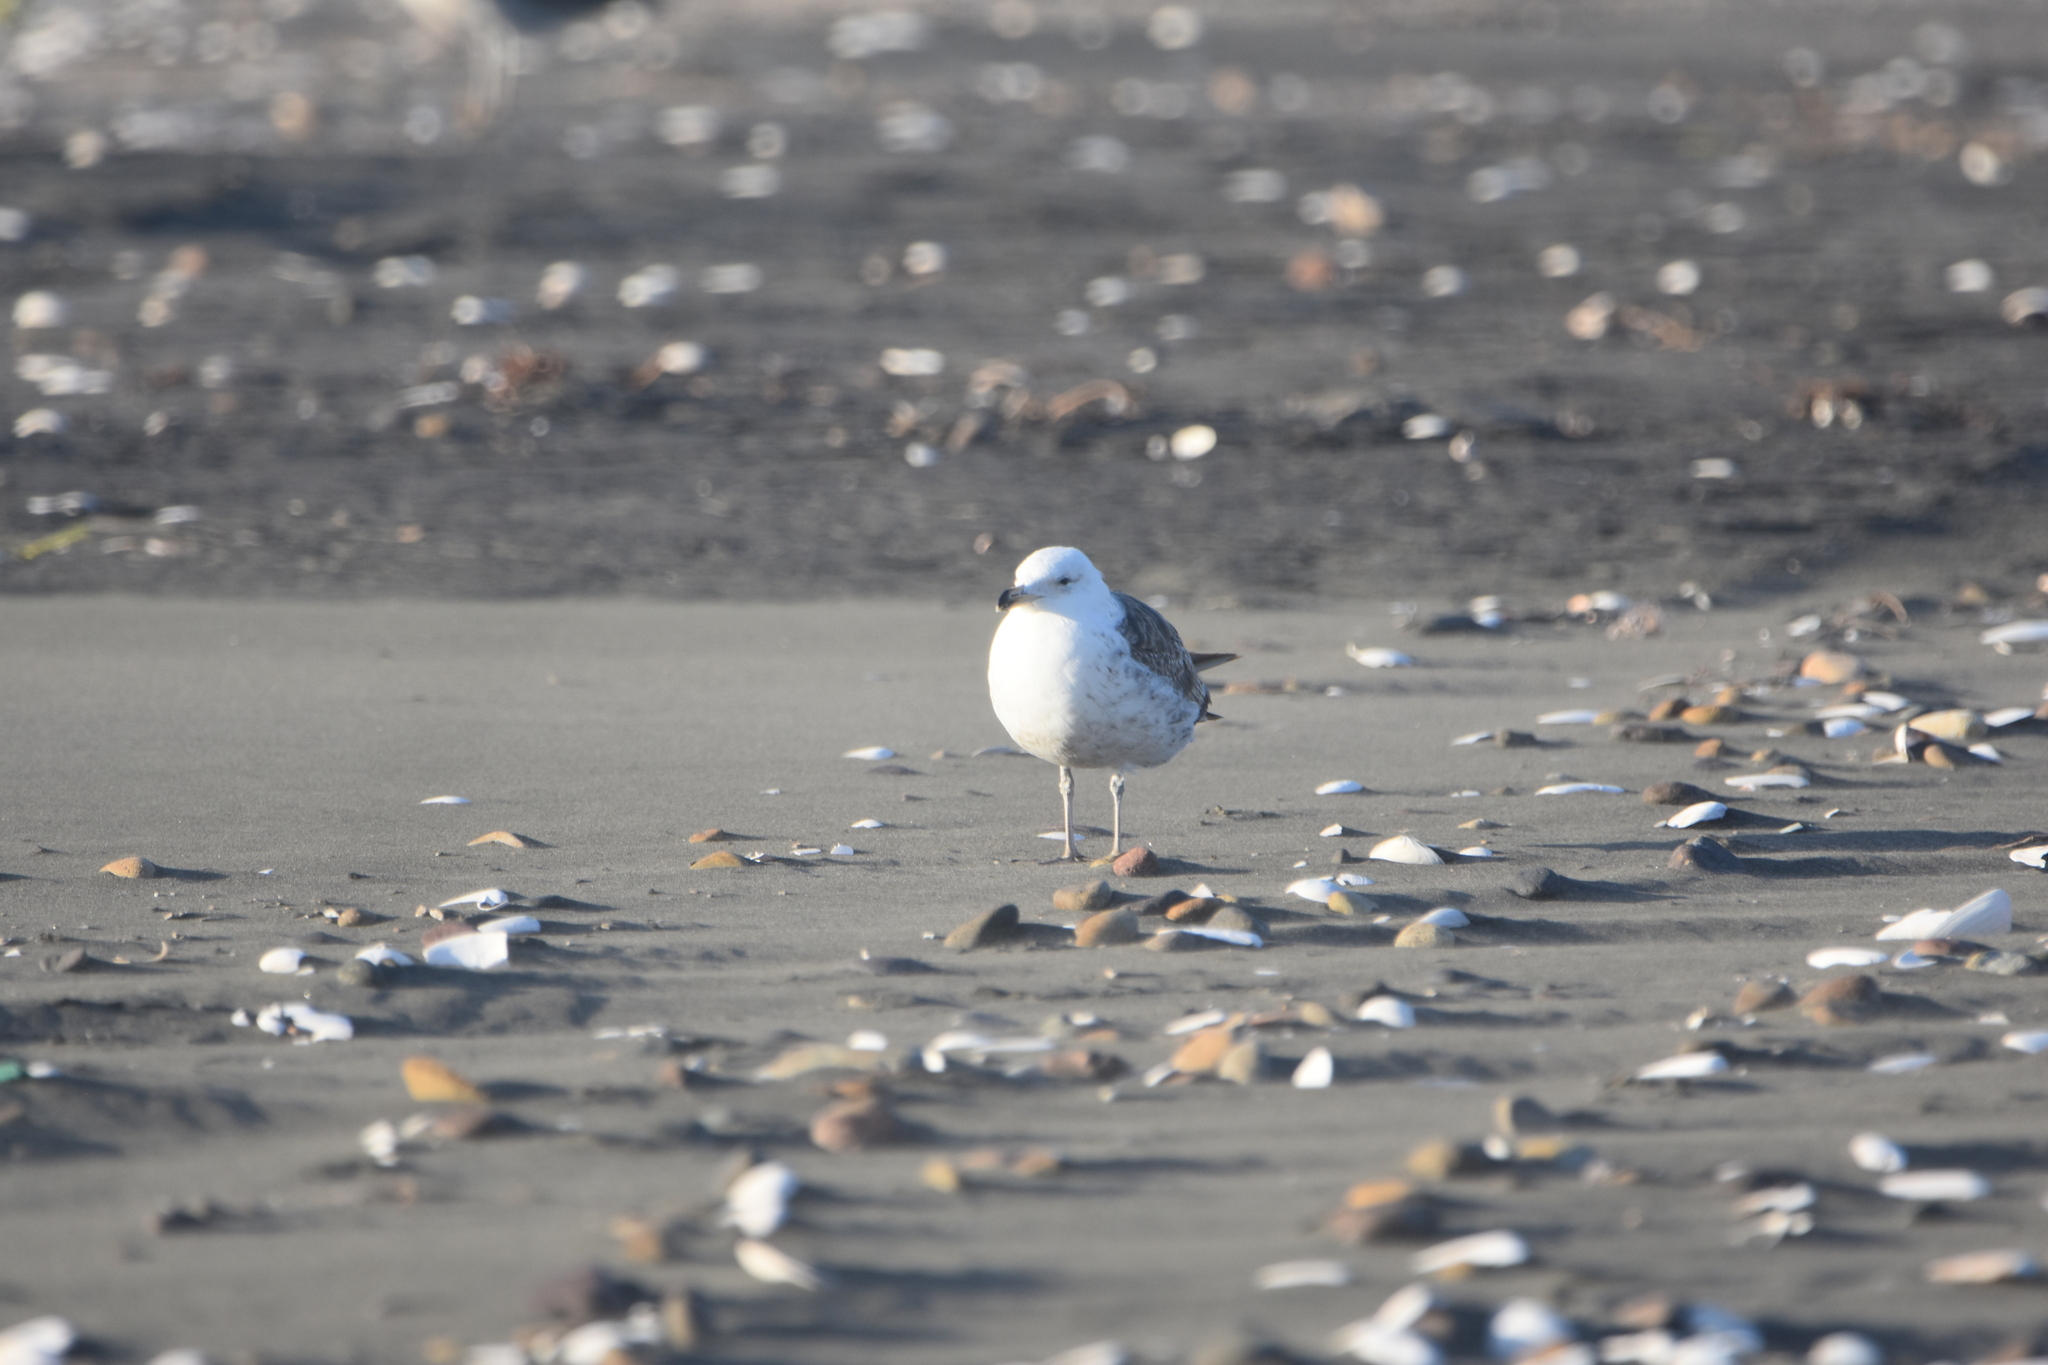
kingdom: Animalia
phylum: Chordata
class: Aves
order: Charadriiformes
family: Laridae
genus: Larus
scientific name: Larus dominicanus
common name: Kelp gull
